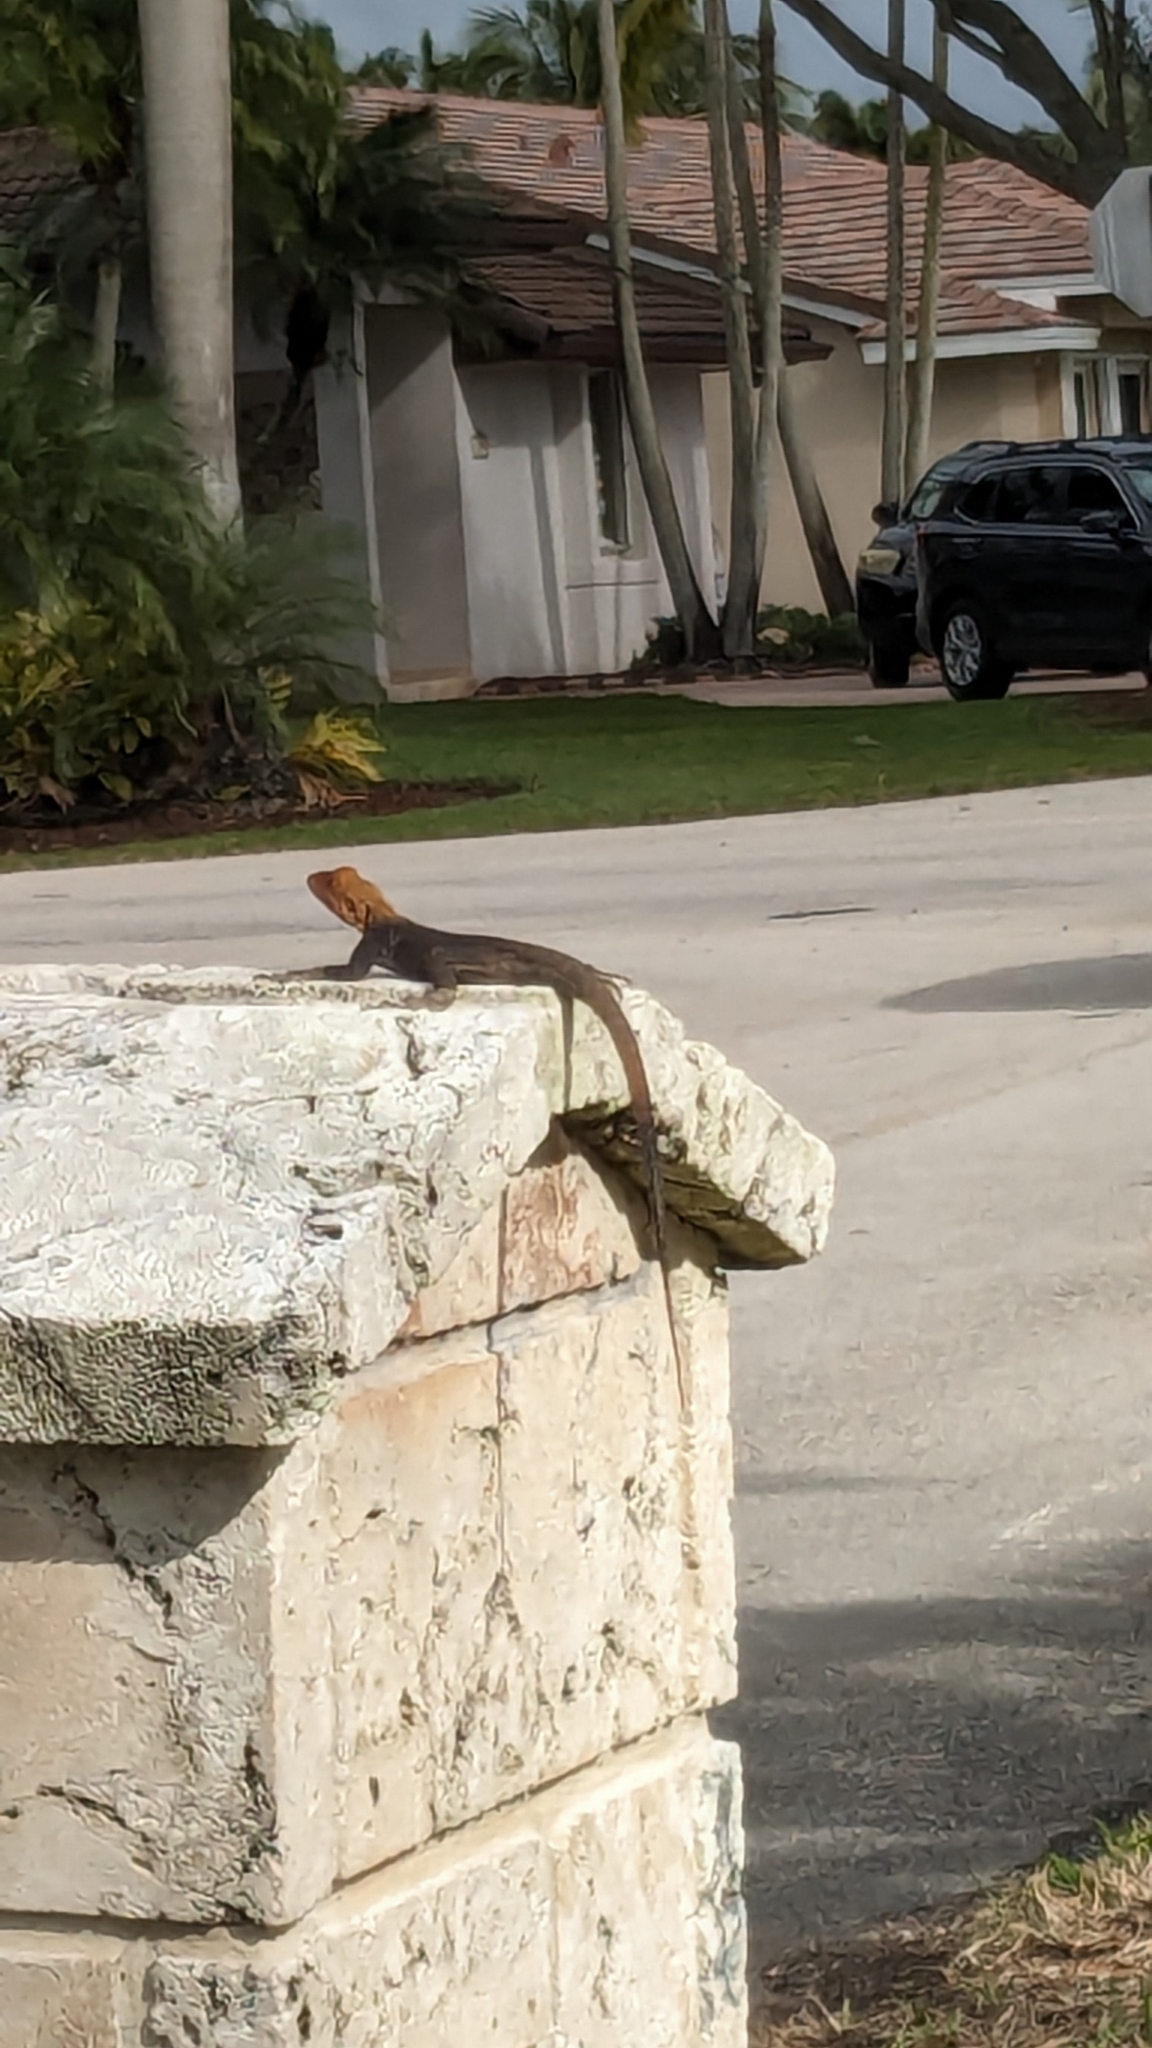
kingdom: Animalia
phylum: Chordata
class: Squamata
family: Agamidae
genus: Agama
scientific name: Agama picticauda
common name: Red-headed agama
